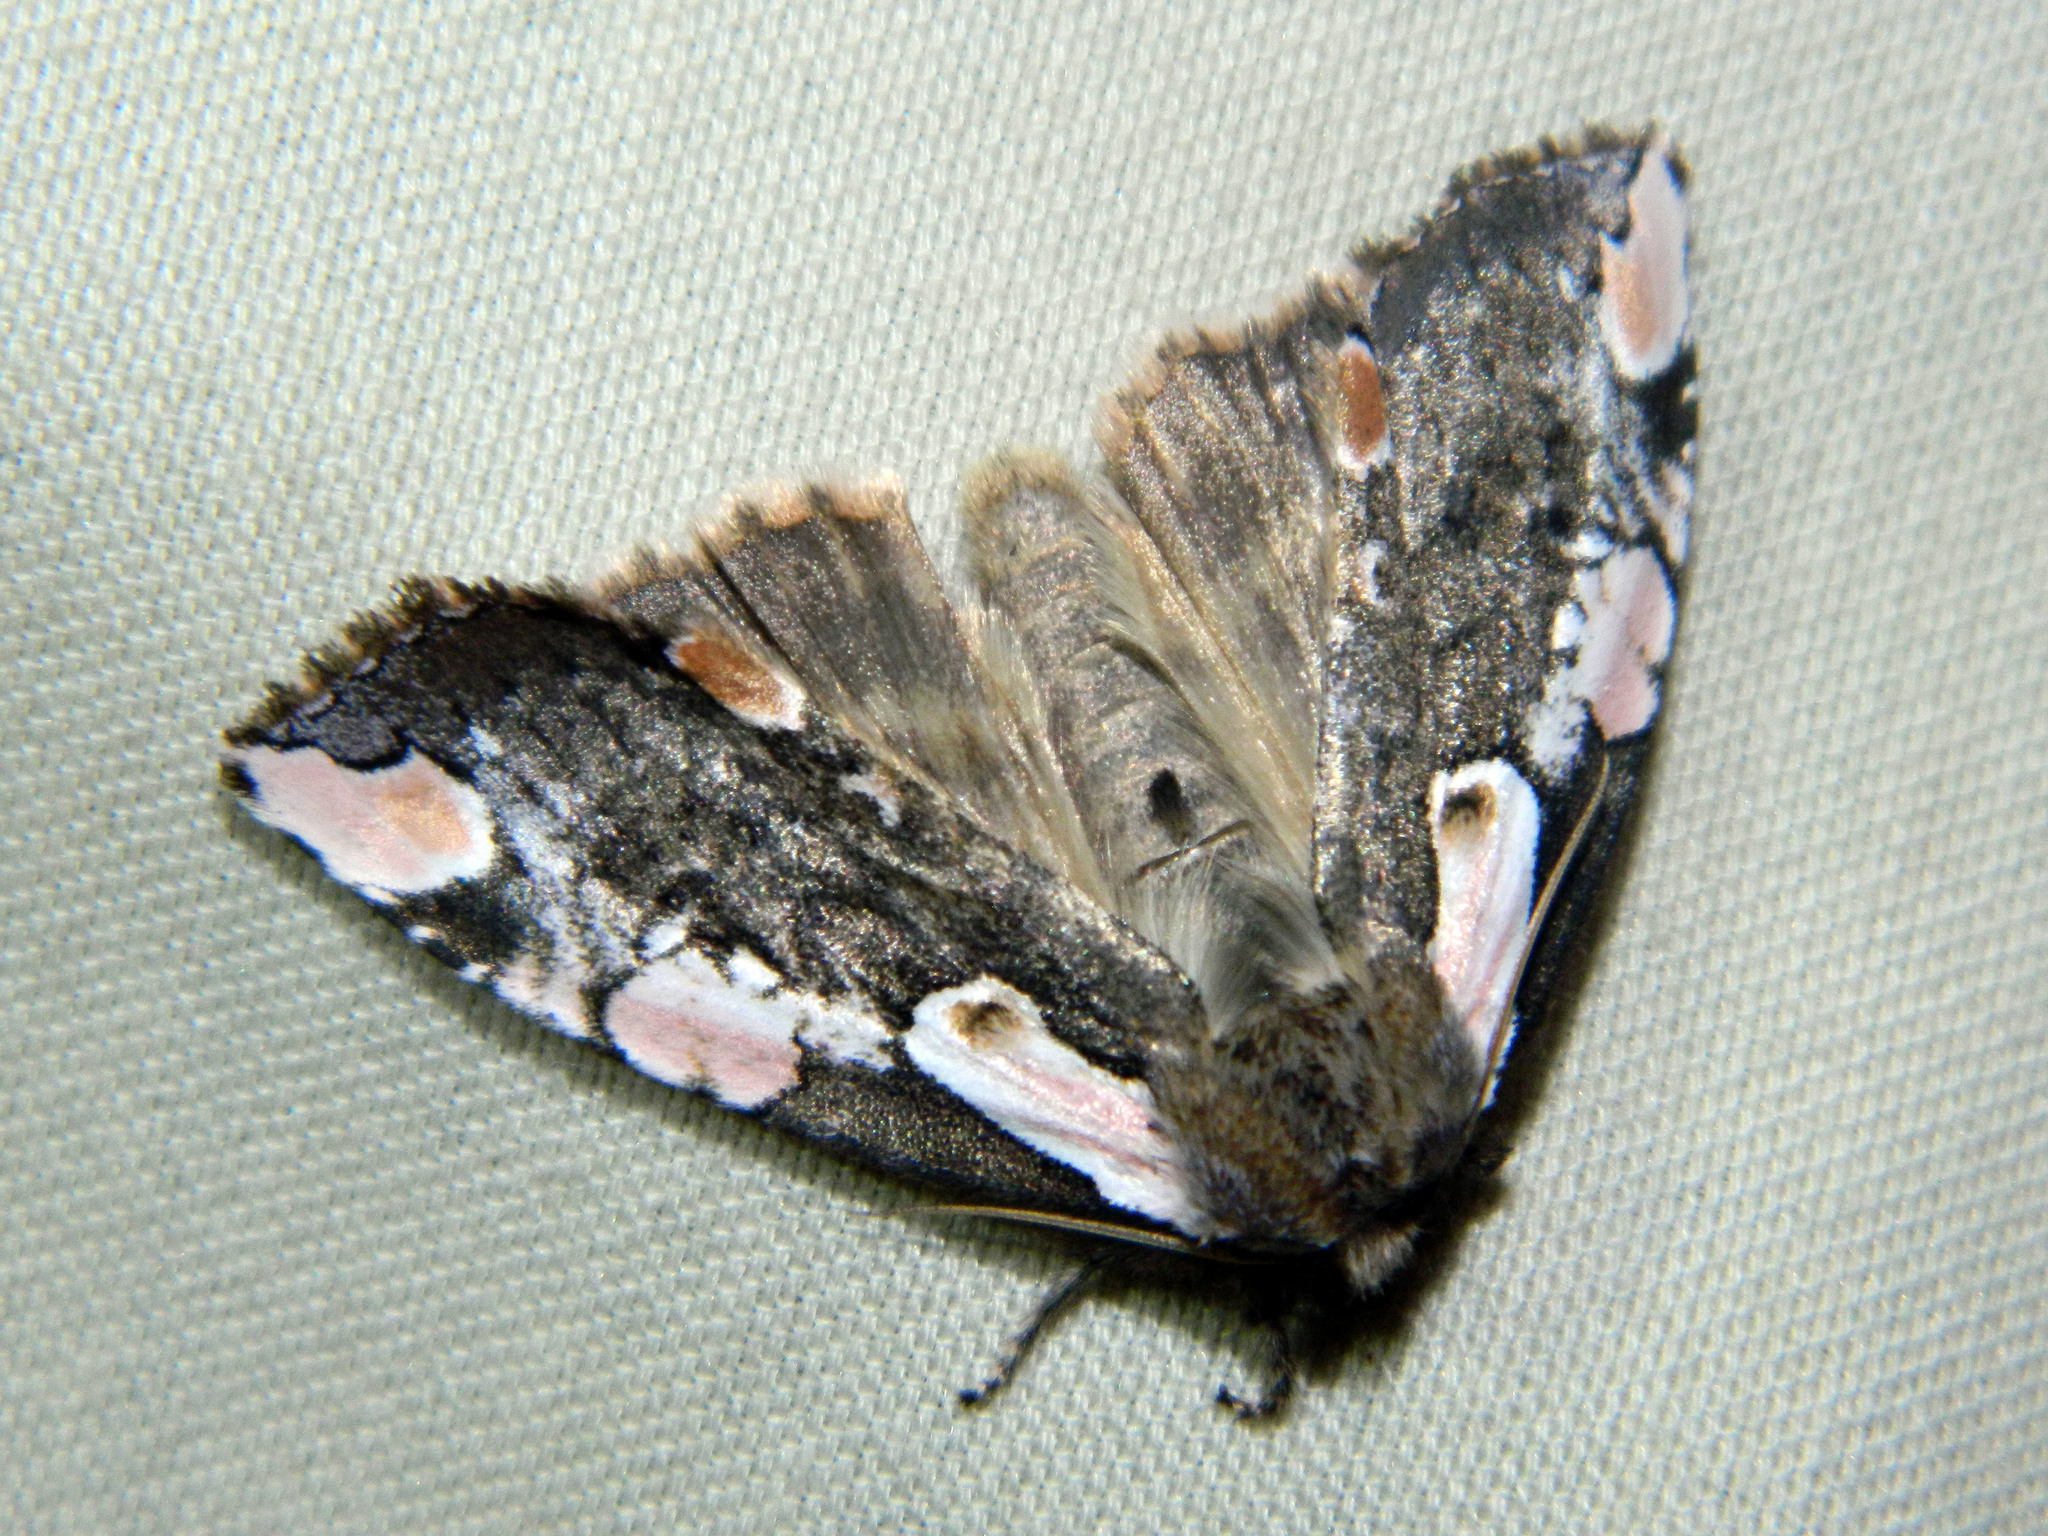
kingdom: Animalia
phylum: Arthropoda
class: Insecta
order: Lepidoptera
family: Drepanidae
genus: Euthyatira
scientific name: Euthyatira pudens
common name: Dogwood thyatirid moth
